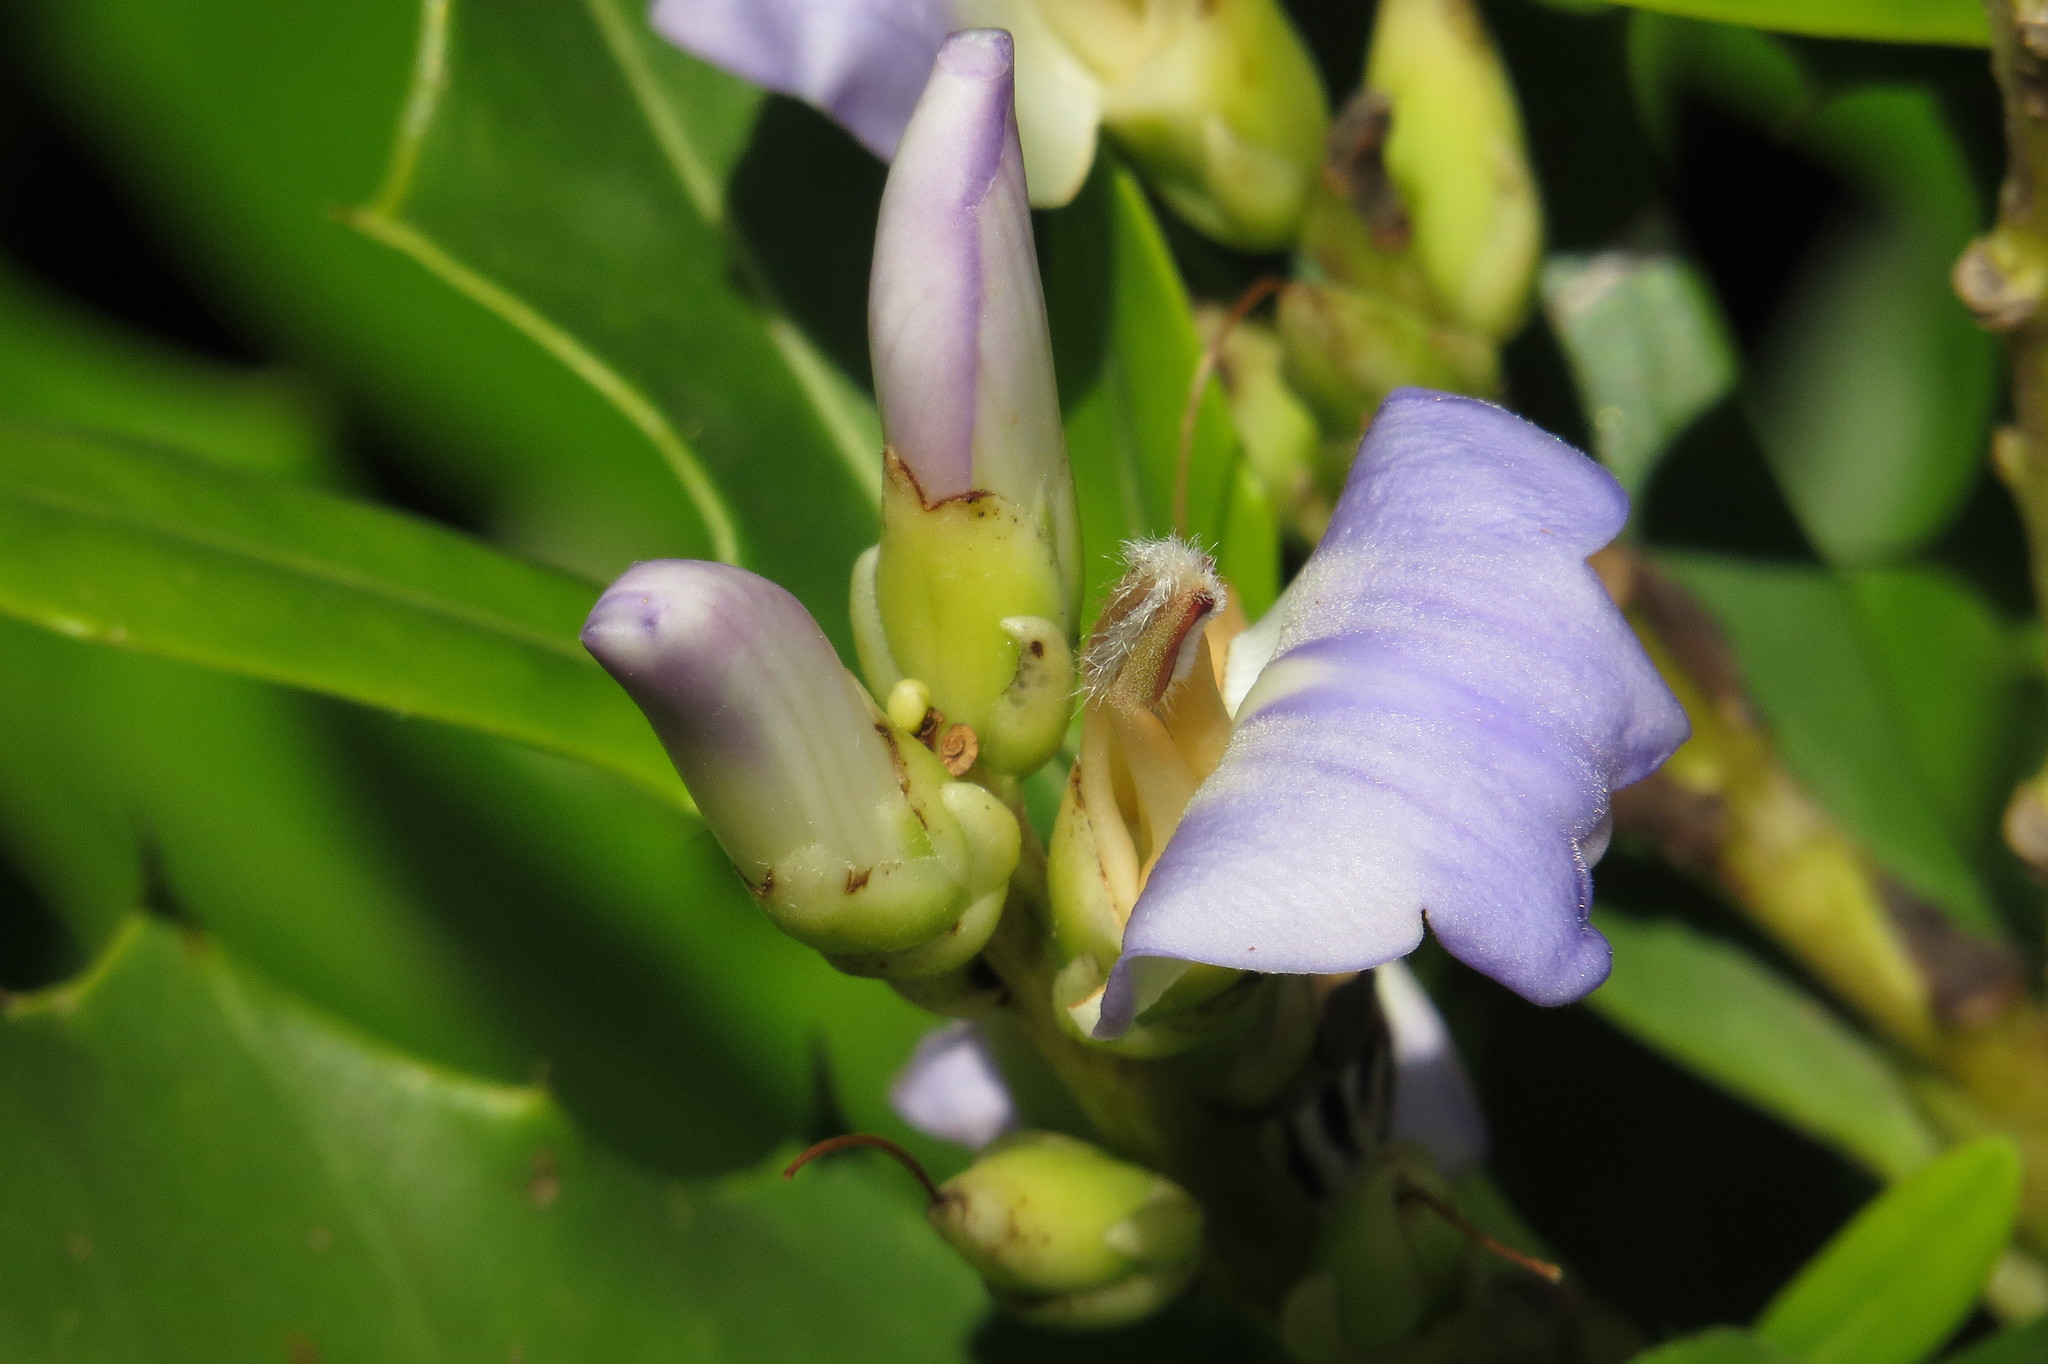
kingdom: Plantae
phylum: Tracheophyta
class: Magnoliopsida
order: Lamiales
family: Acanthaceae
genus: Acanthus
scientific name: Acanthus ilicifolius
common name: Holy mangrove
